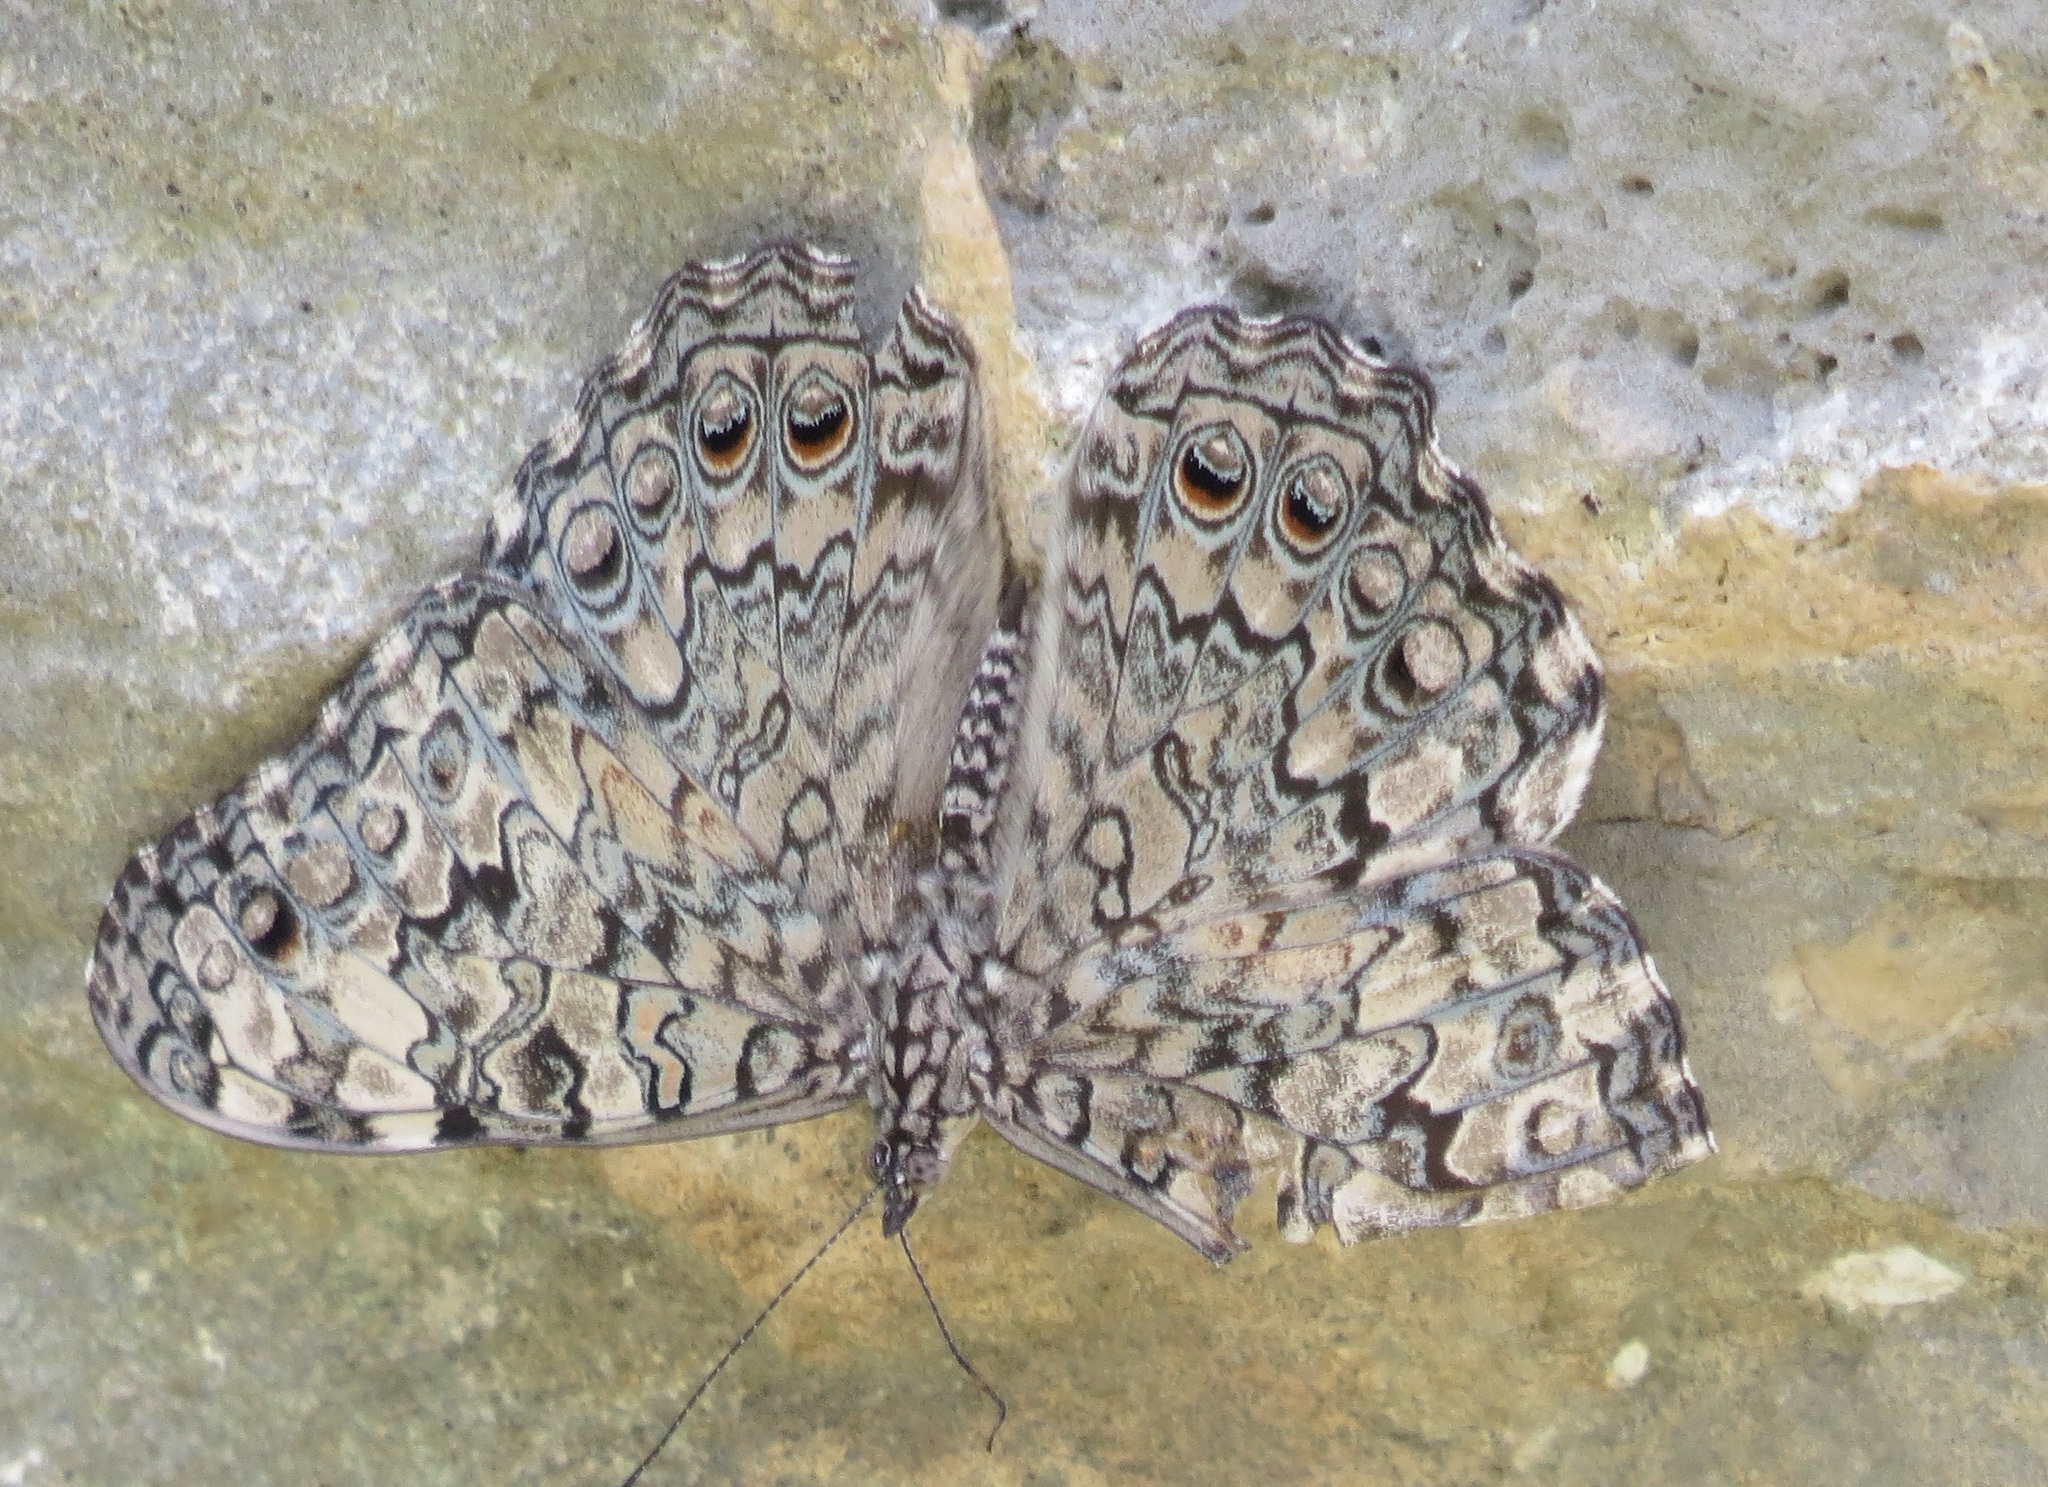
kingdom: Animalia
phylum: Arthropoda
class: Insecta
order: Lepidoptera
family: Nymphalidae
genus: Hamadryas
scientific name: Hamadryas februa
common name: Gray cracker
